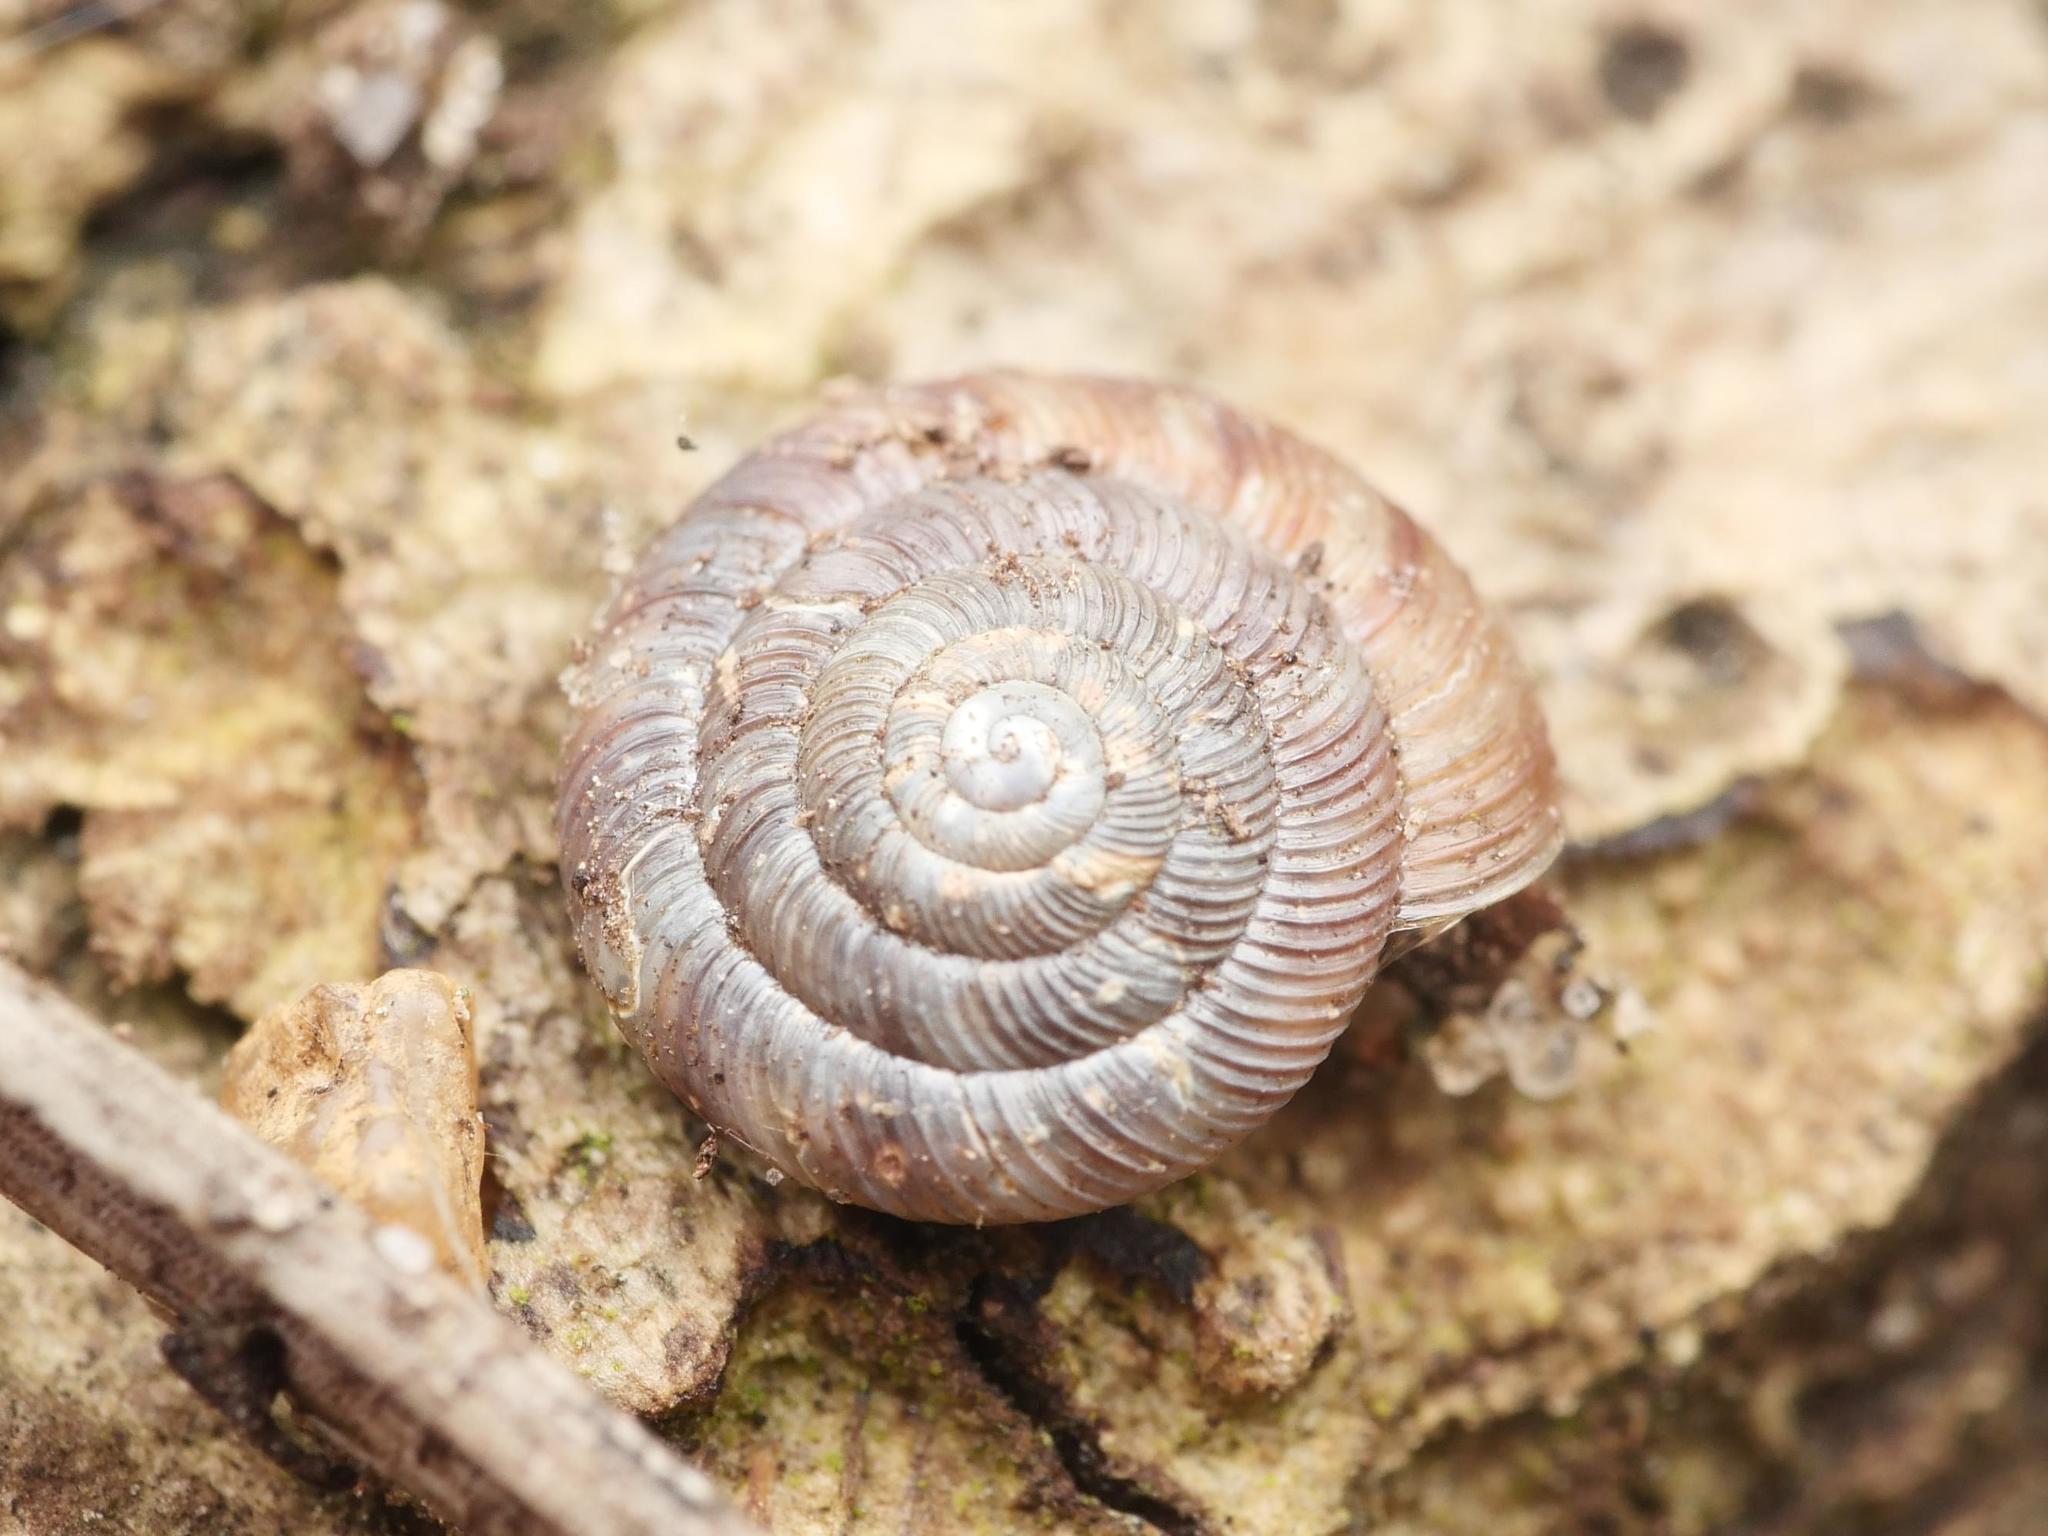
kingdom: Animalia
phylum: Mollusca
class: Gastropoda
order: Stylommatophora
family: Discidae
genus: Discus
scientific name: Discus rotundatus
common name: Rounded snail
